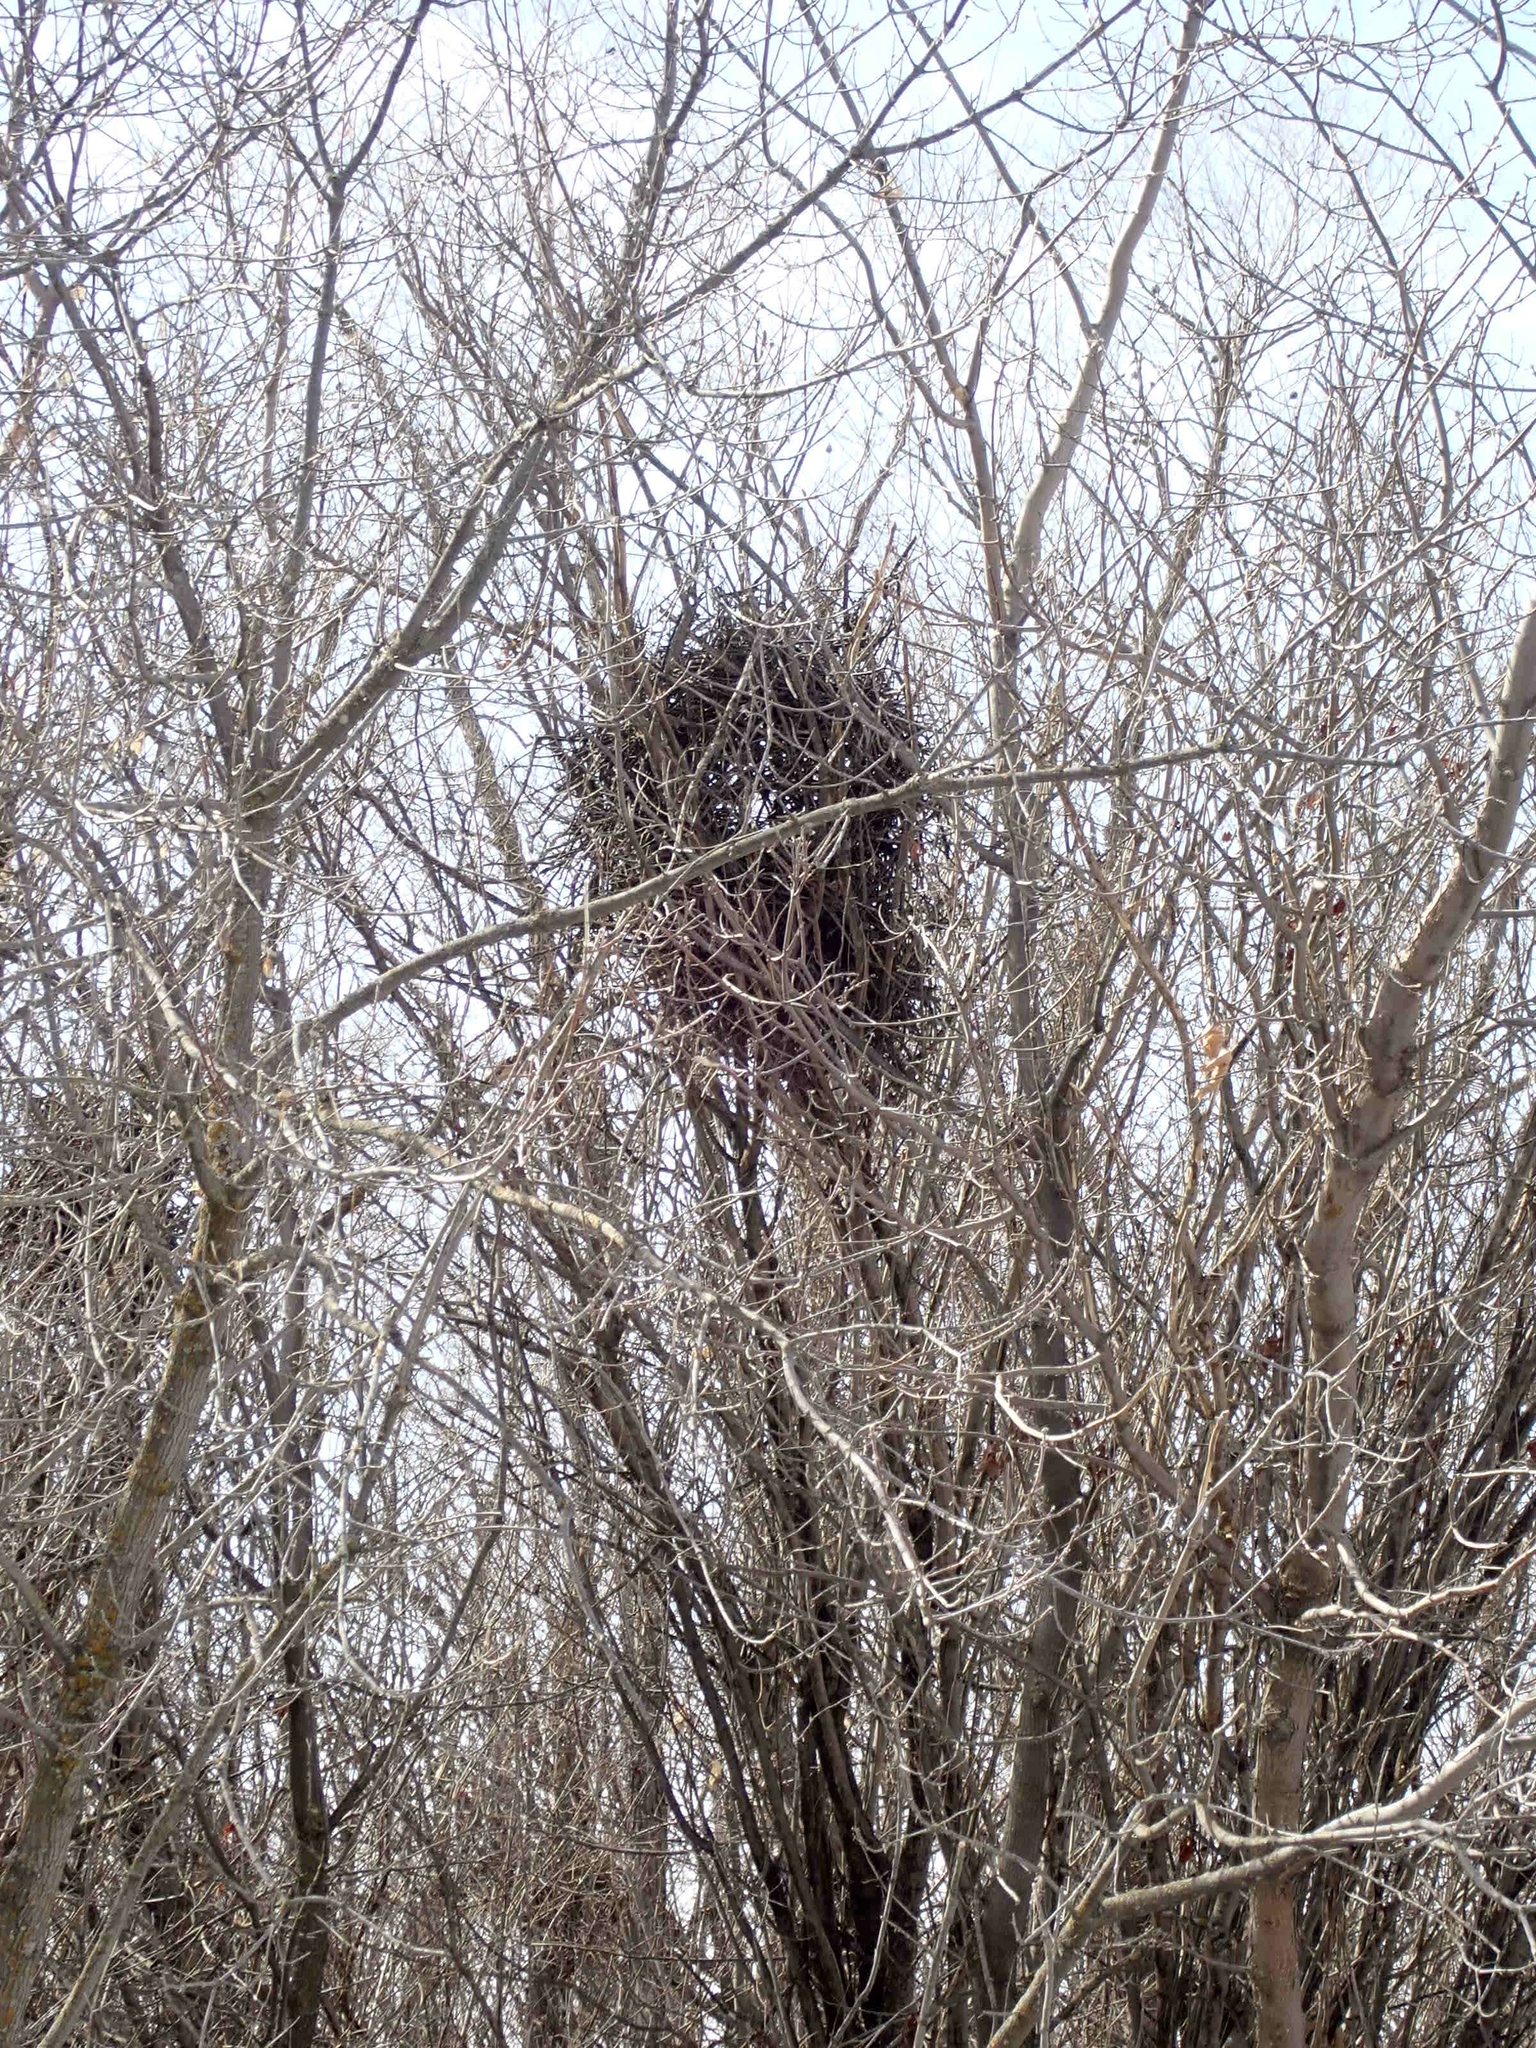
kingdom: Animalia
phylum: Chordata
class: Aves
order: Passeriformes
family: Corvidae
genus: Pica
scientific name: Pica hudsonia
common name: Black-billed magpie
